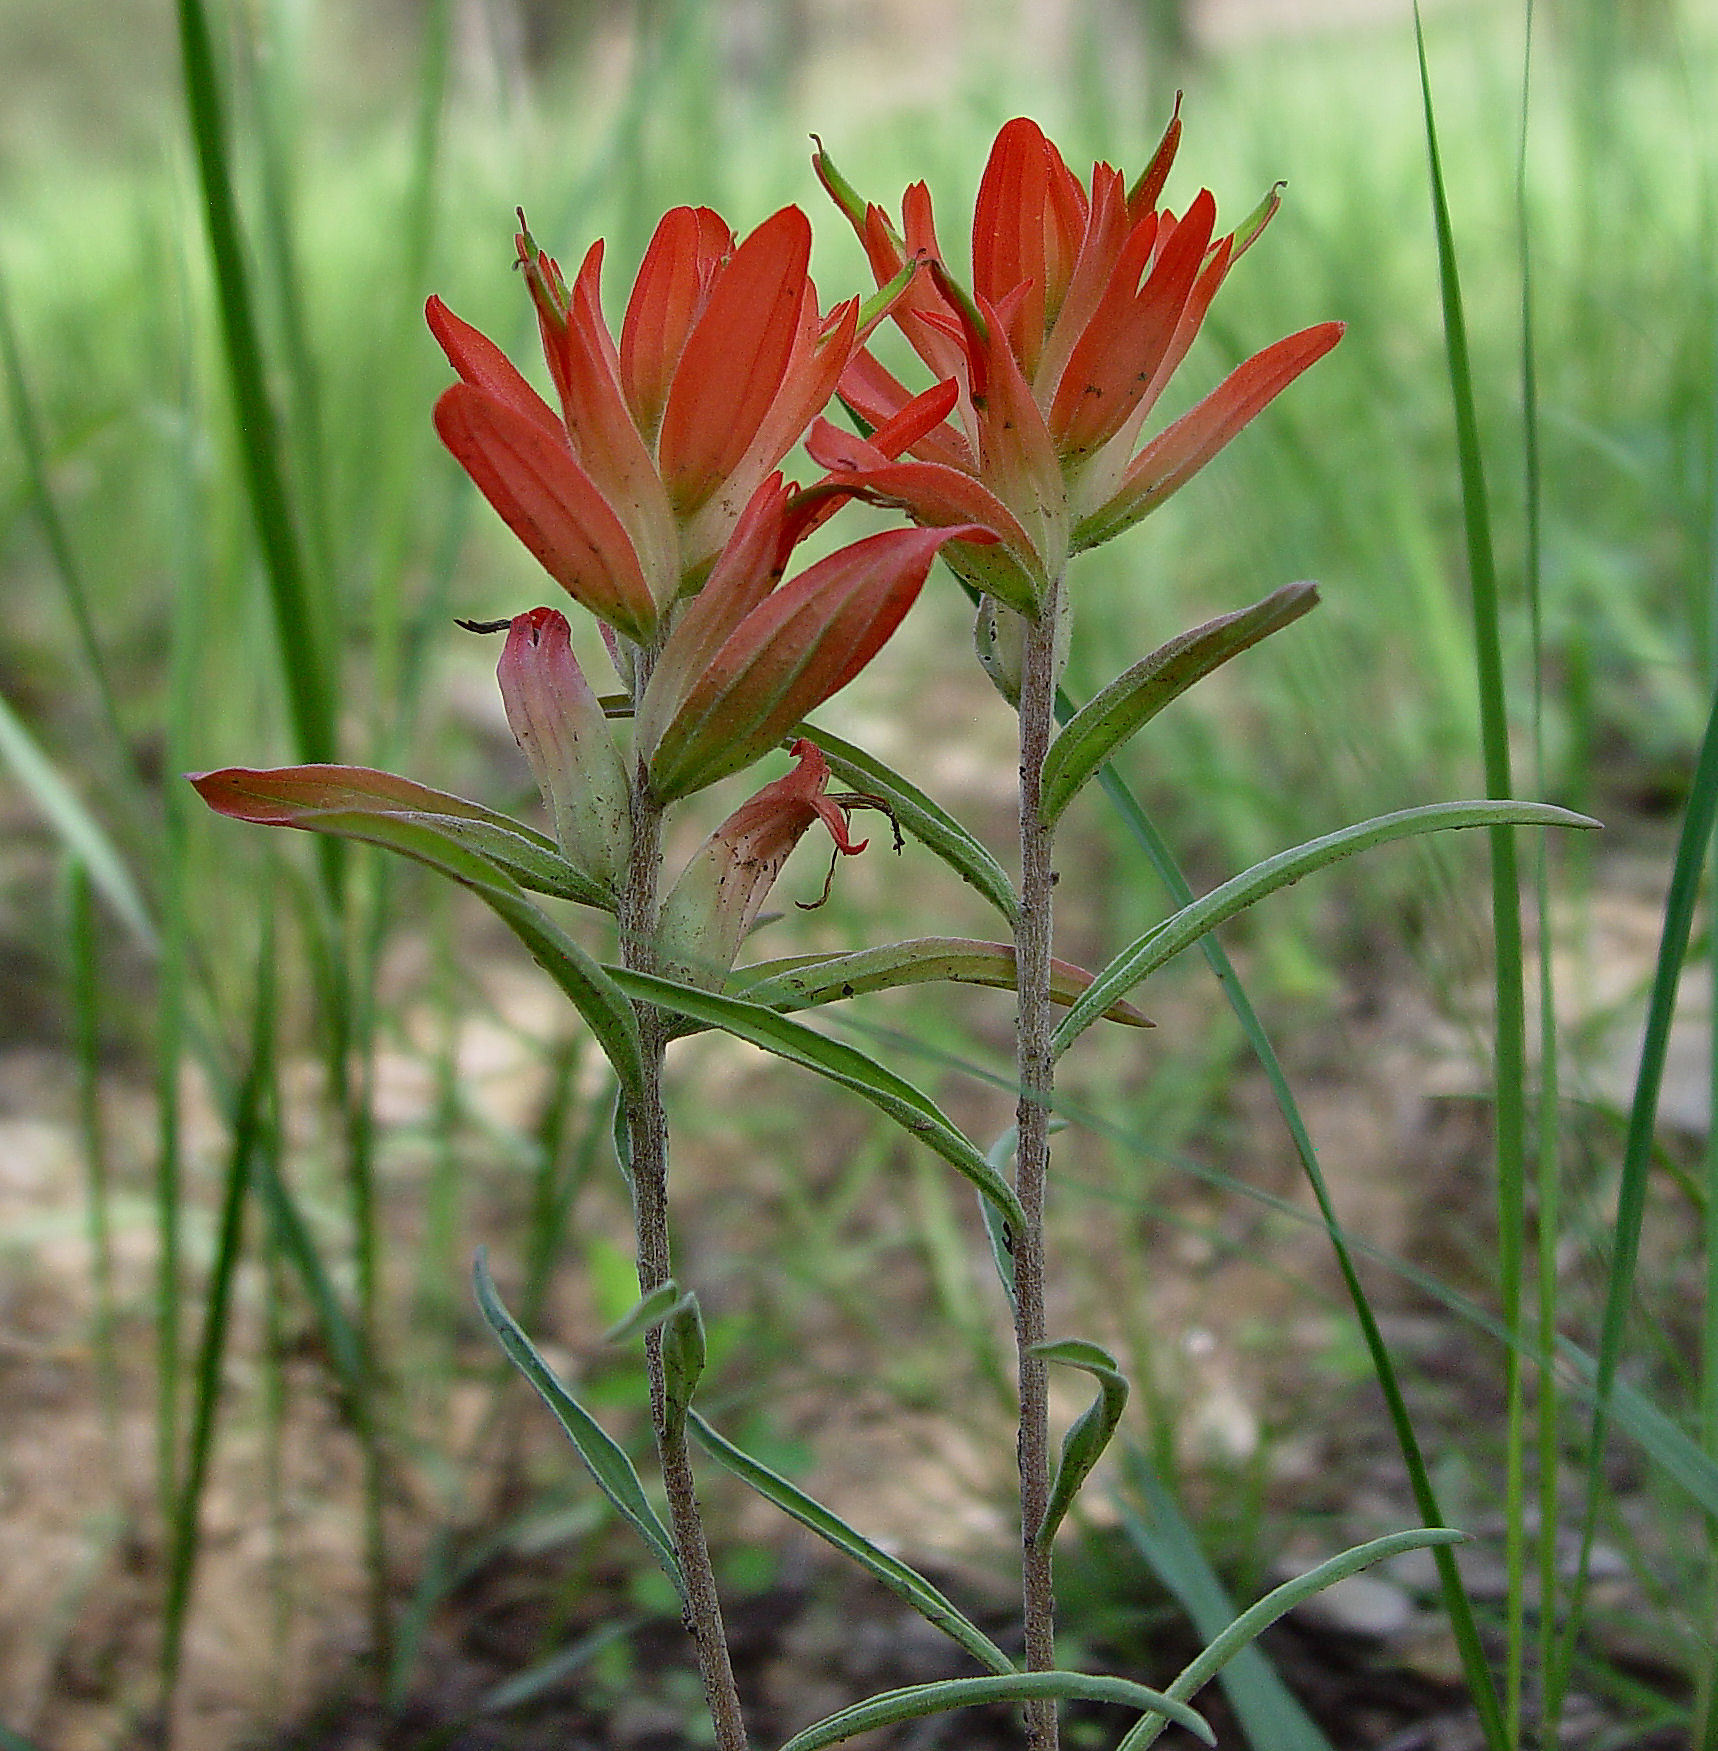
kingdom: Plantae
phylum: Tracheophyta
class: Magnoliopsida
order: Lamiales
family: Orobanchaceae
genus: Castilleja
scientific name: Castilleja integra
